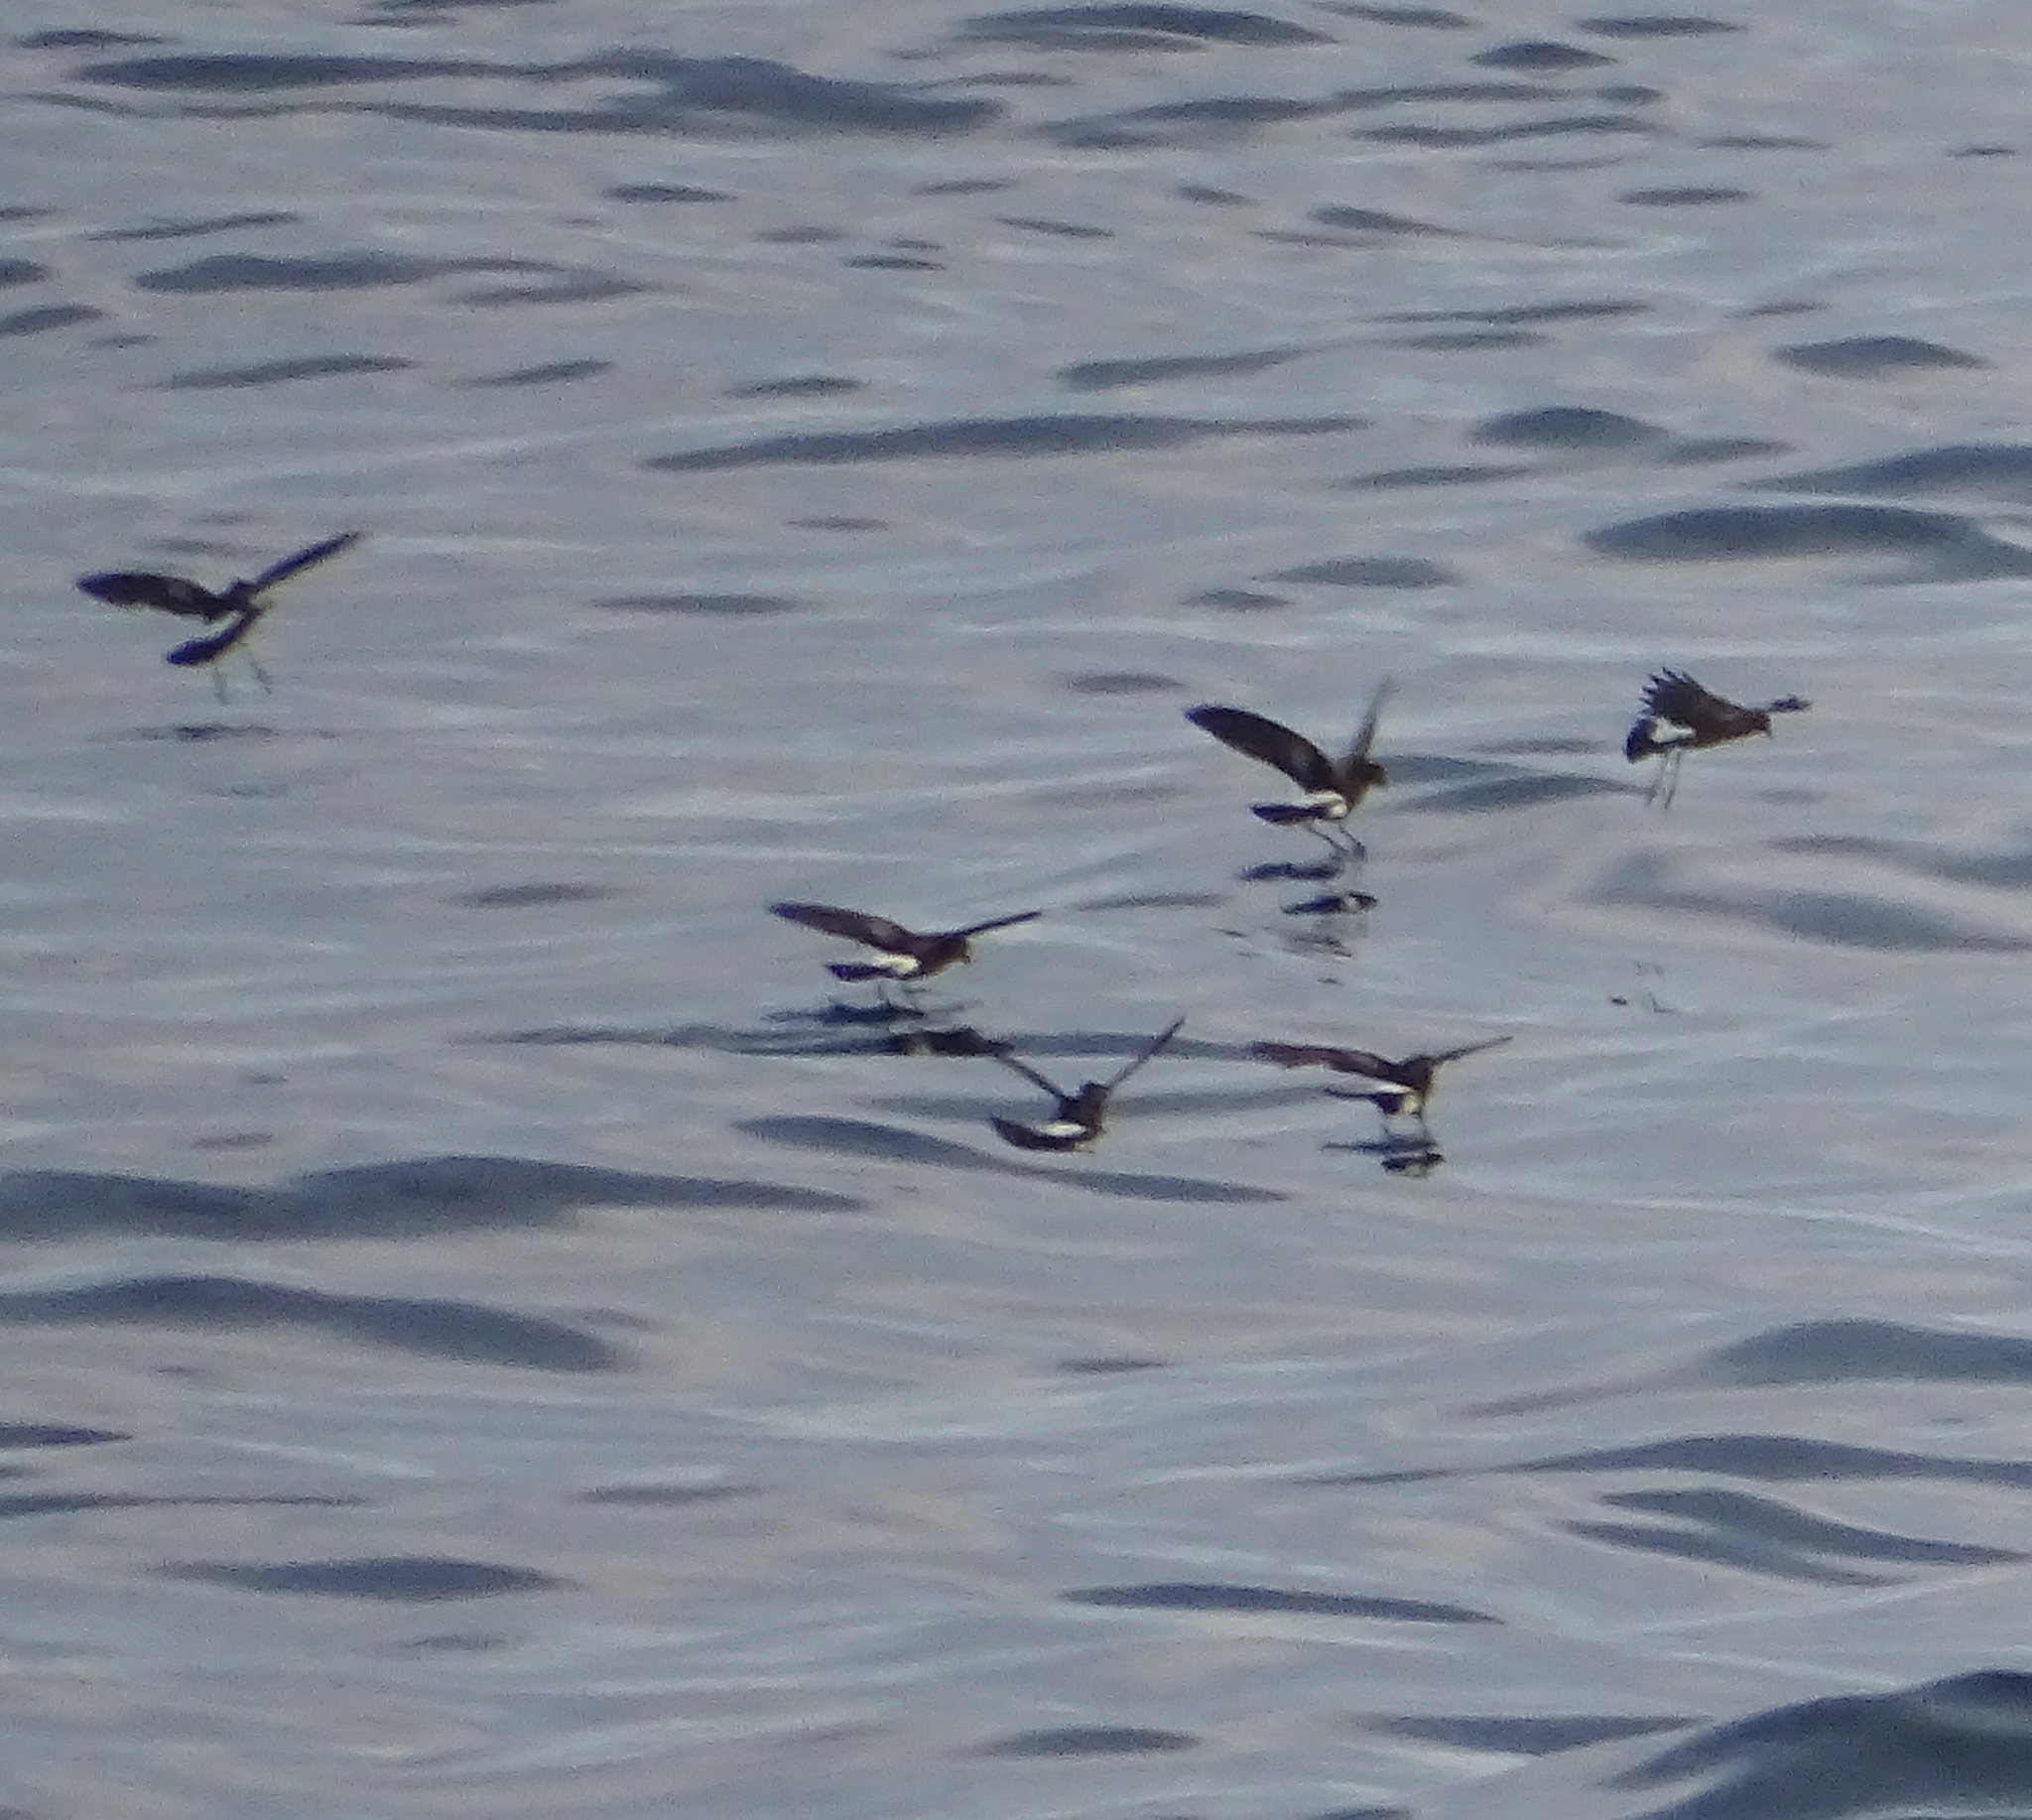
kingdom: Animalia
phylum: Chordata
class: Aves
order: Procellariiformes
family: Hydrobatidae
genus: Oceanites
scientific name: Oceanites oceanicus
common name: Wilson's storm petrel
